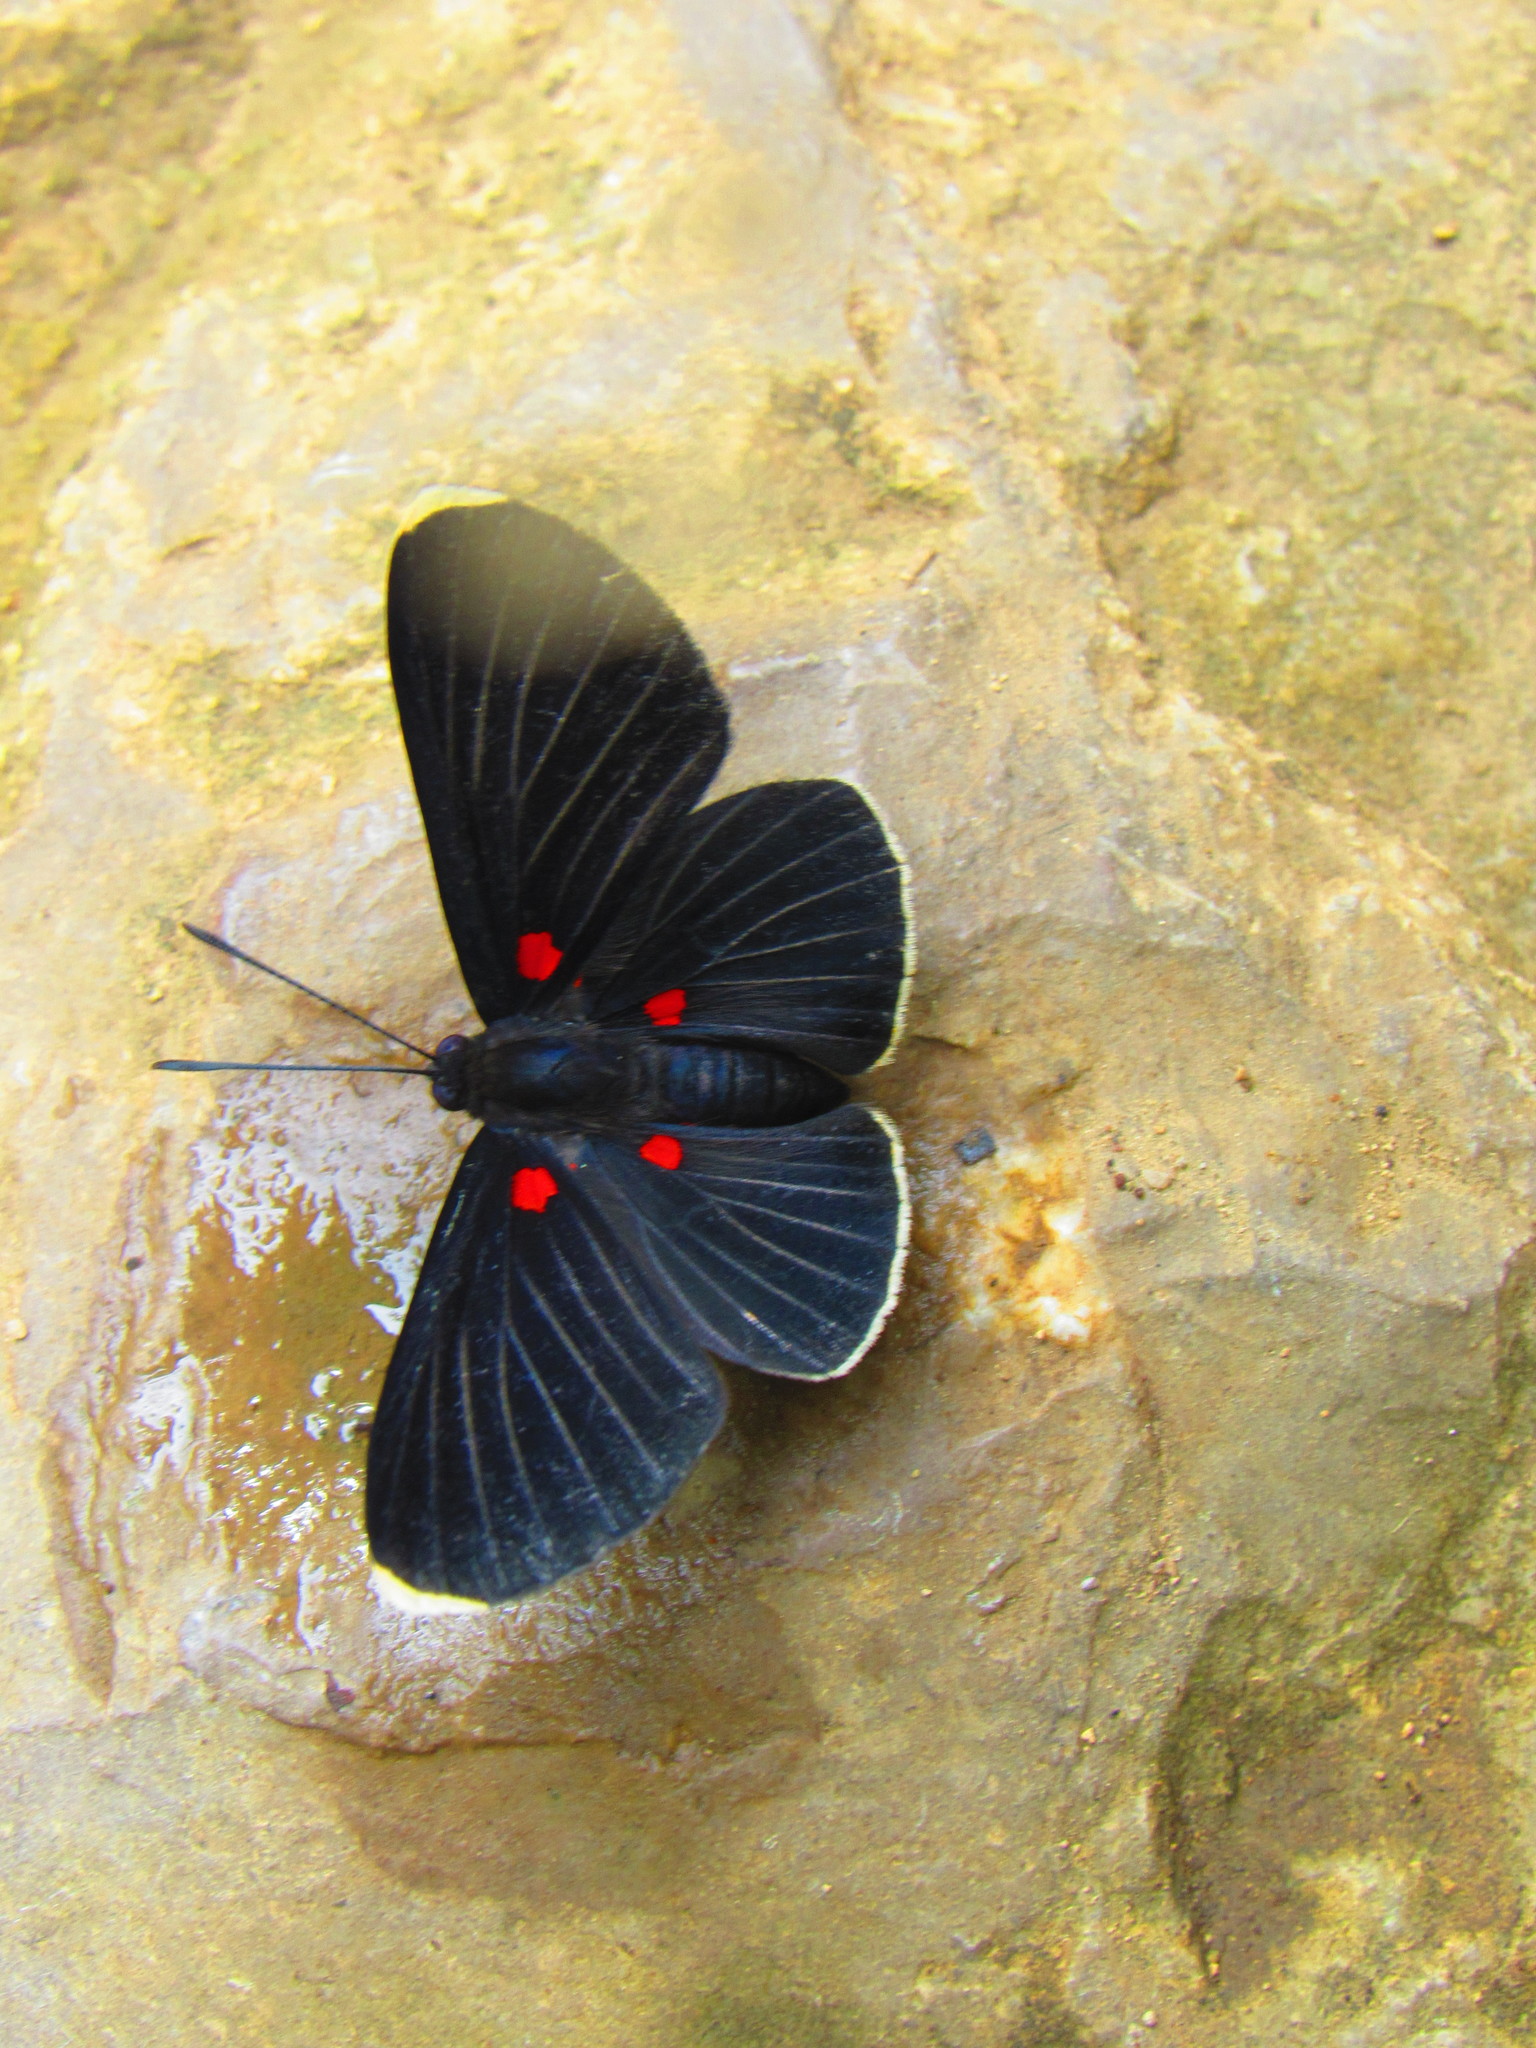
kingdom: Animalia
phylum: Arthropoda
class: Insecta
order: Lepidoptera
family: Lycaenidae
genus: Melanis
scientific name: Melanis
